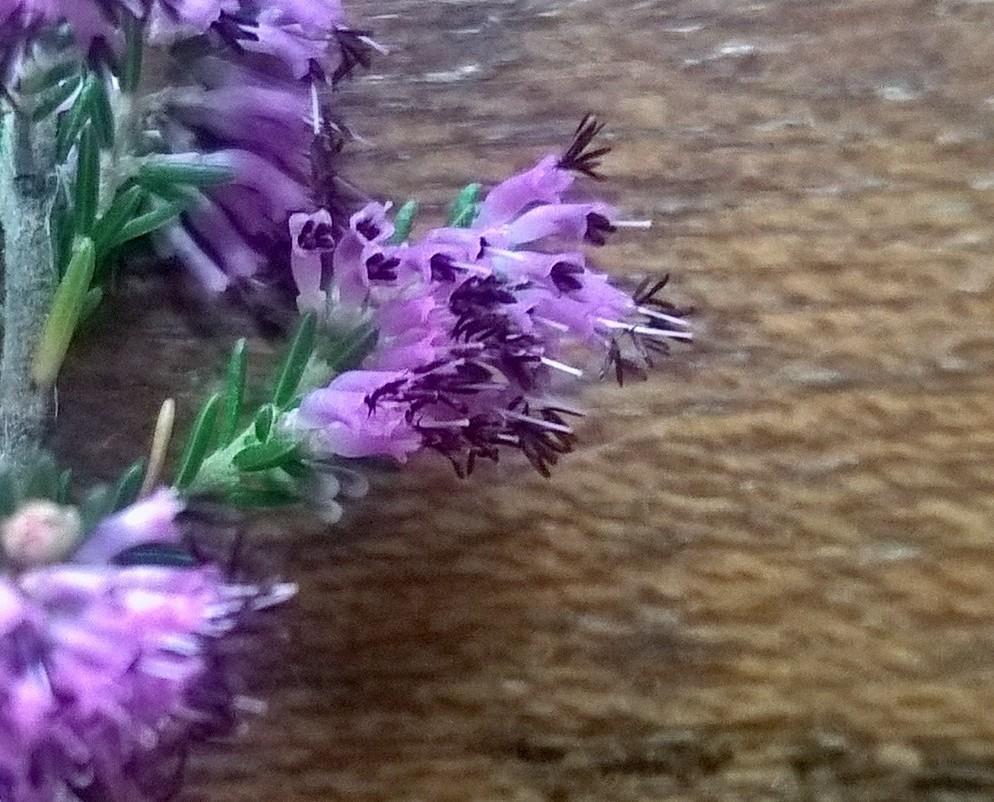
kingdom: Plantae
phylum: Tracheophyta
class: Magnoliopsida
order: Ericales
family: Ericaceae
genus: Erica
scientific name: Erica uberiflora
